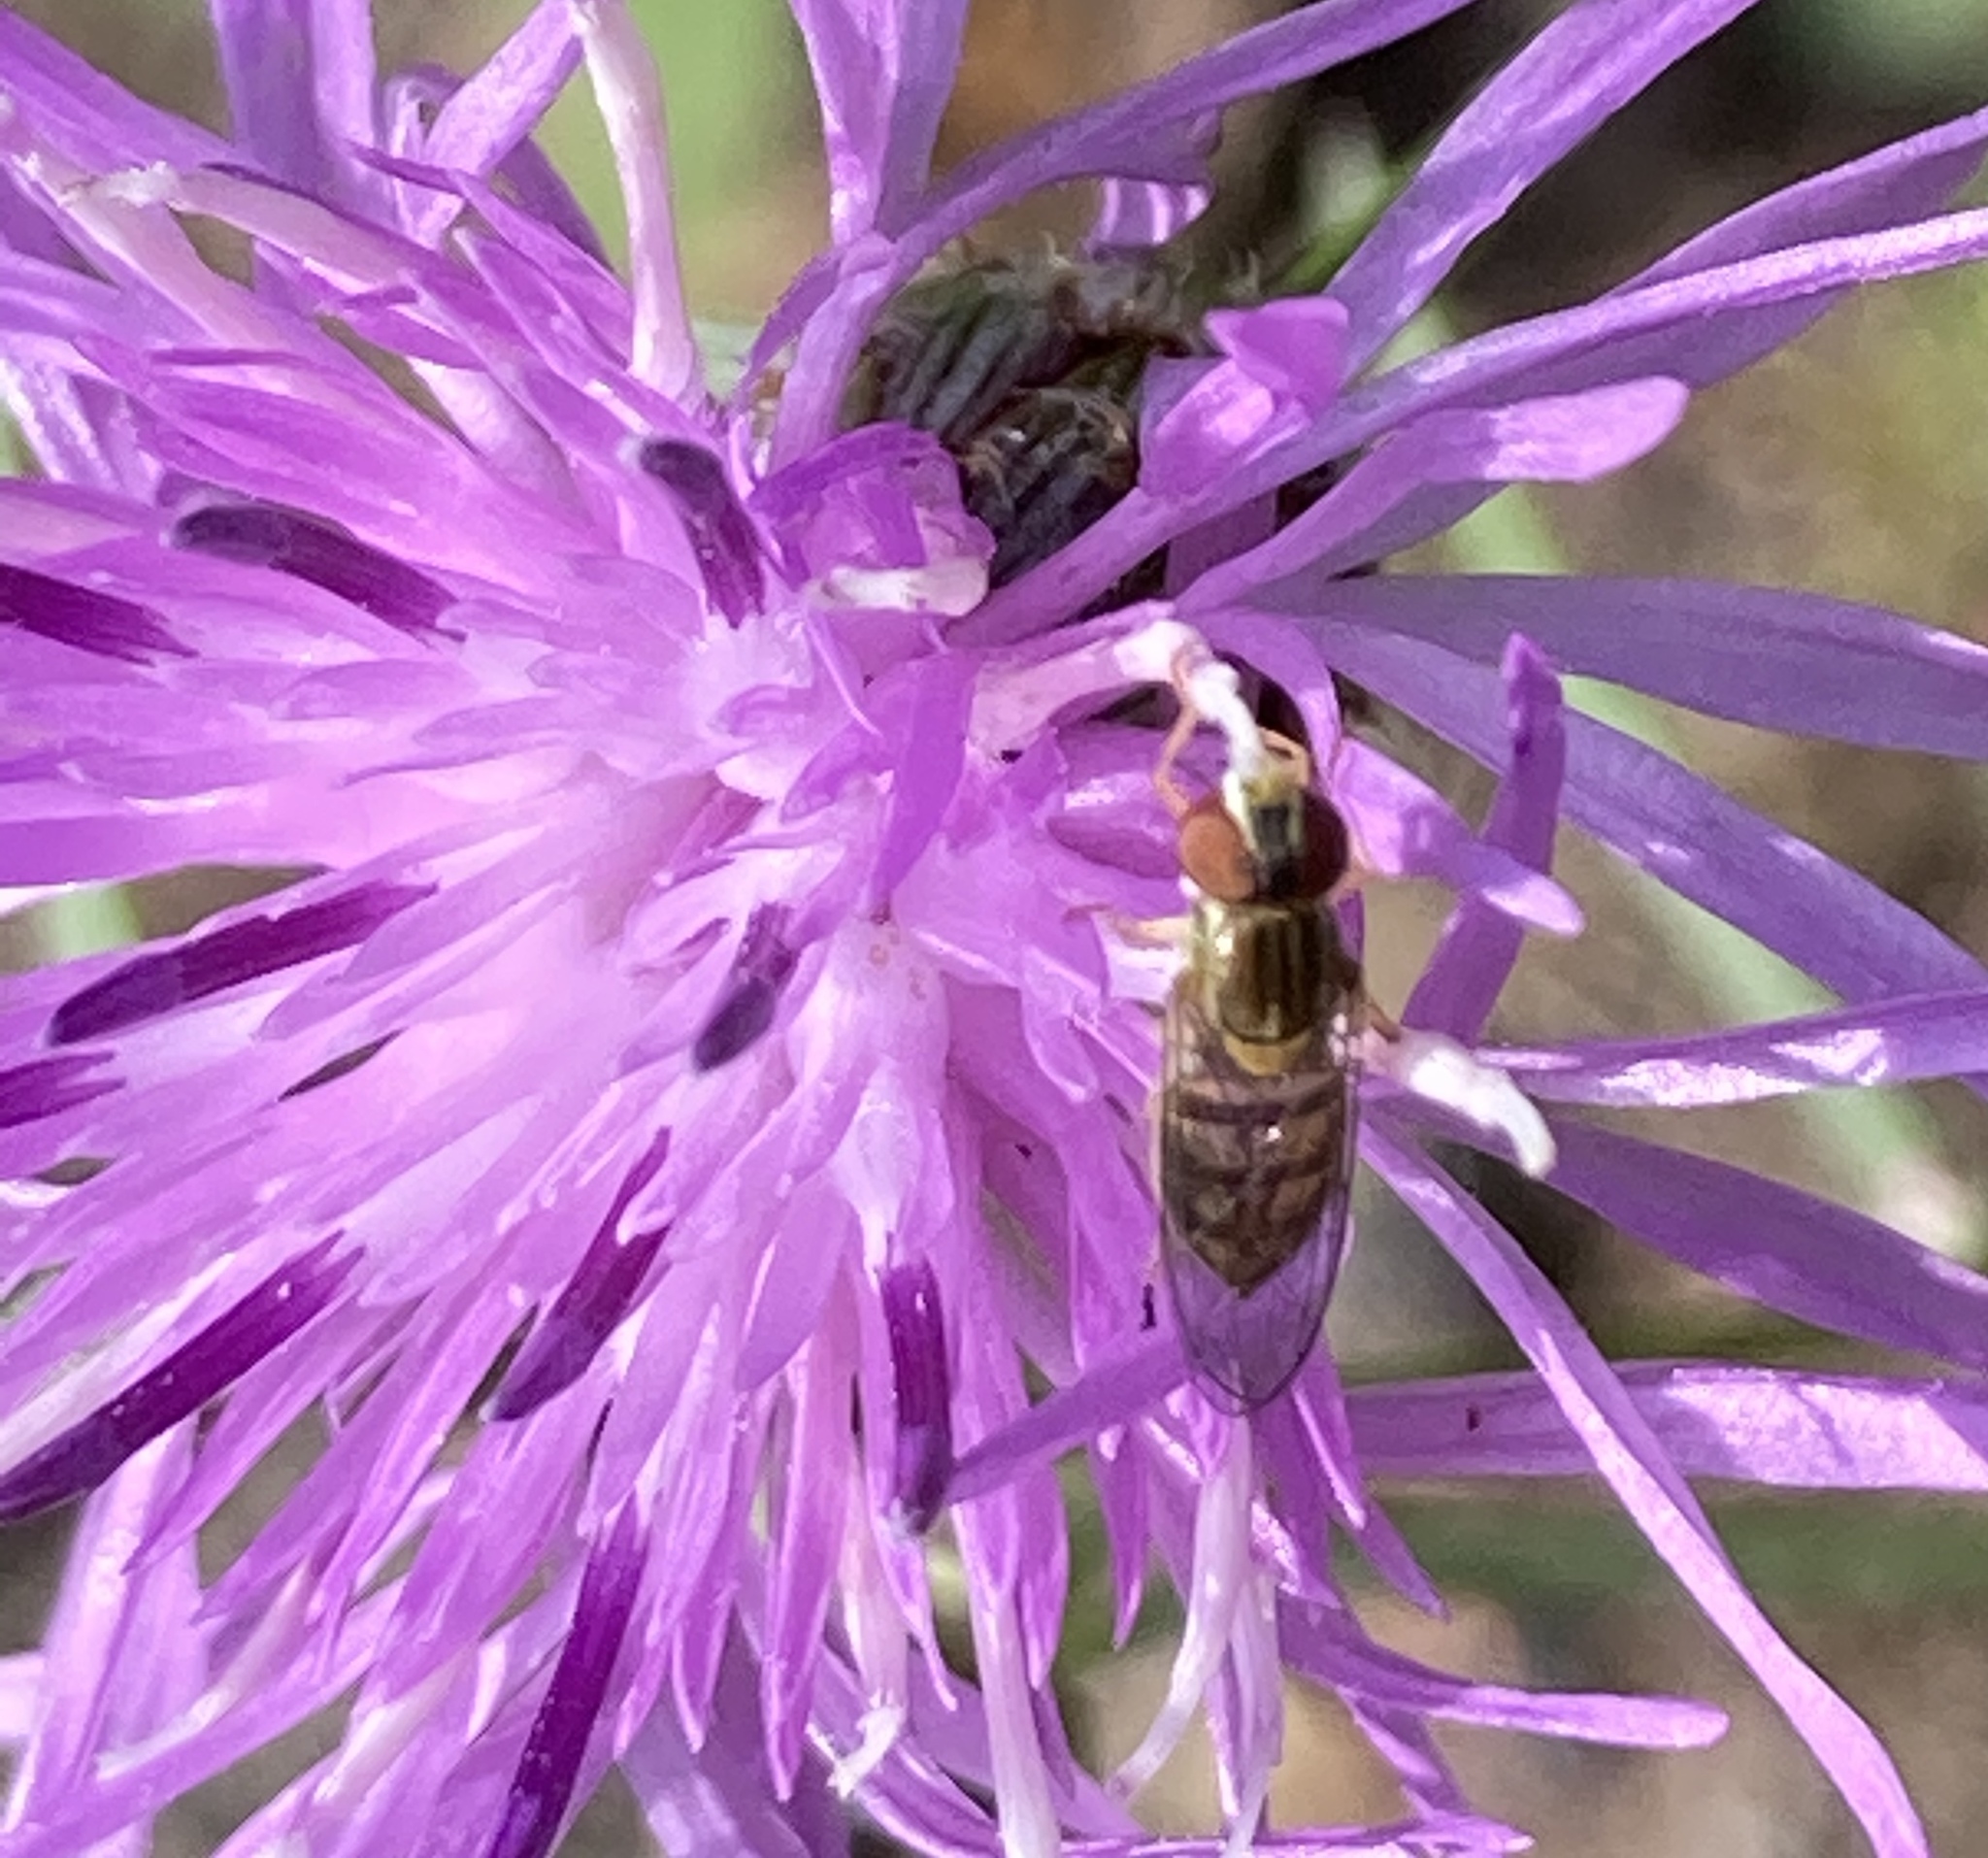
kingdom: Animalia
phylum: Arthropoda
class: Insecta
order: Diptera
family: Syrphidae
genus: Toxomerus
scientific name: Toxomerus marginatus
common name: Syrphid fly
